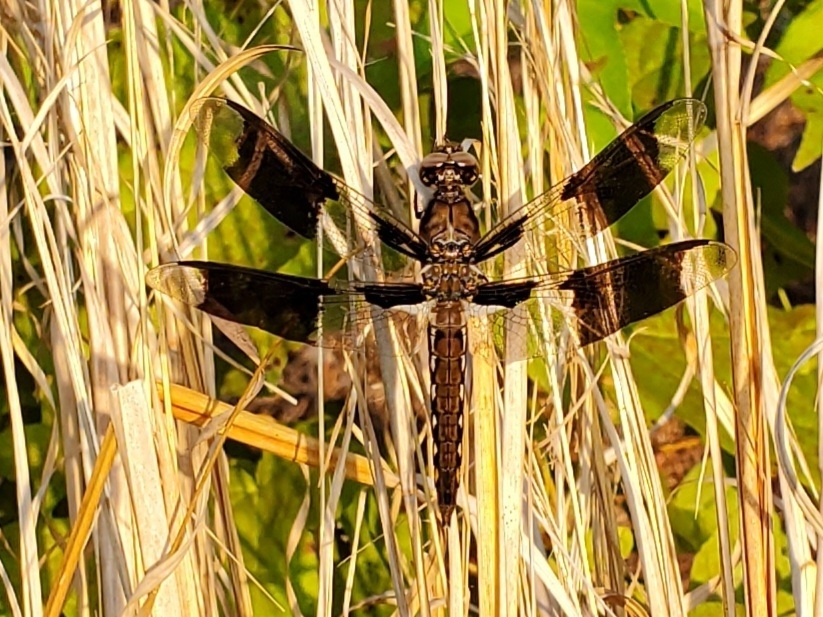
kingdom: Animalia
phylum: Arthropoda
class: Insecta
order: Odonata
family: Libellulidae
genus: Plathemis
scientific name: Plathemis lydia
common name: Common whitetail
